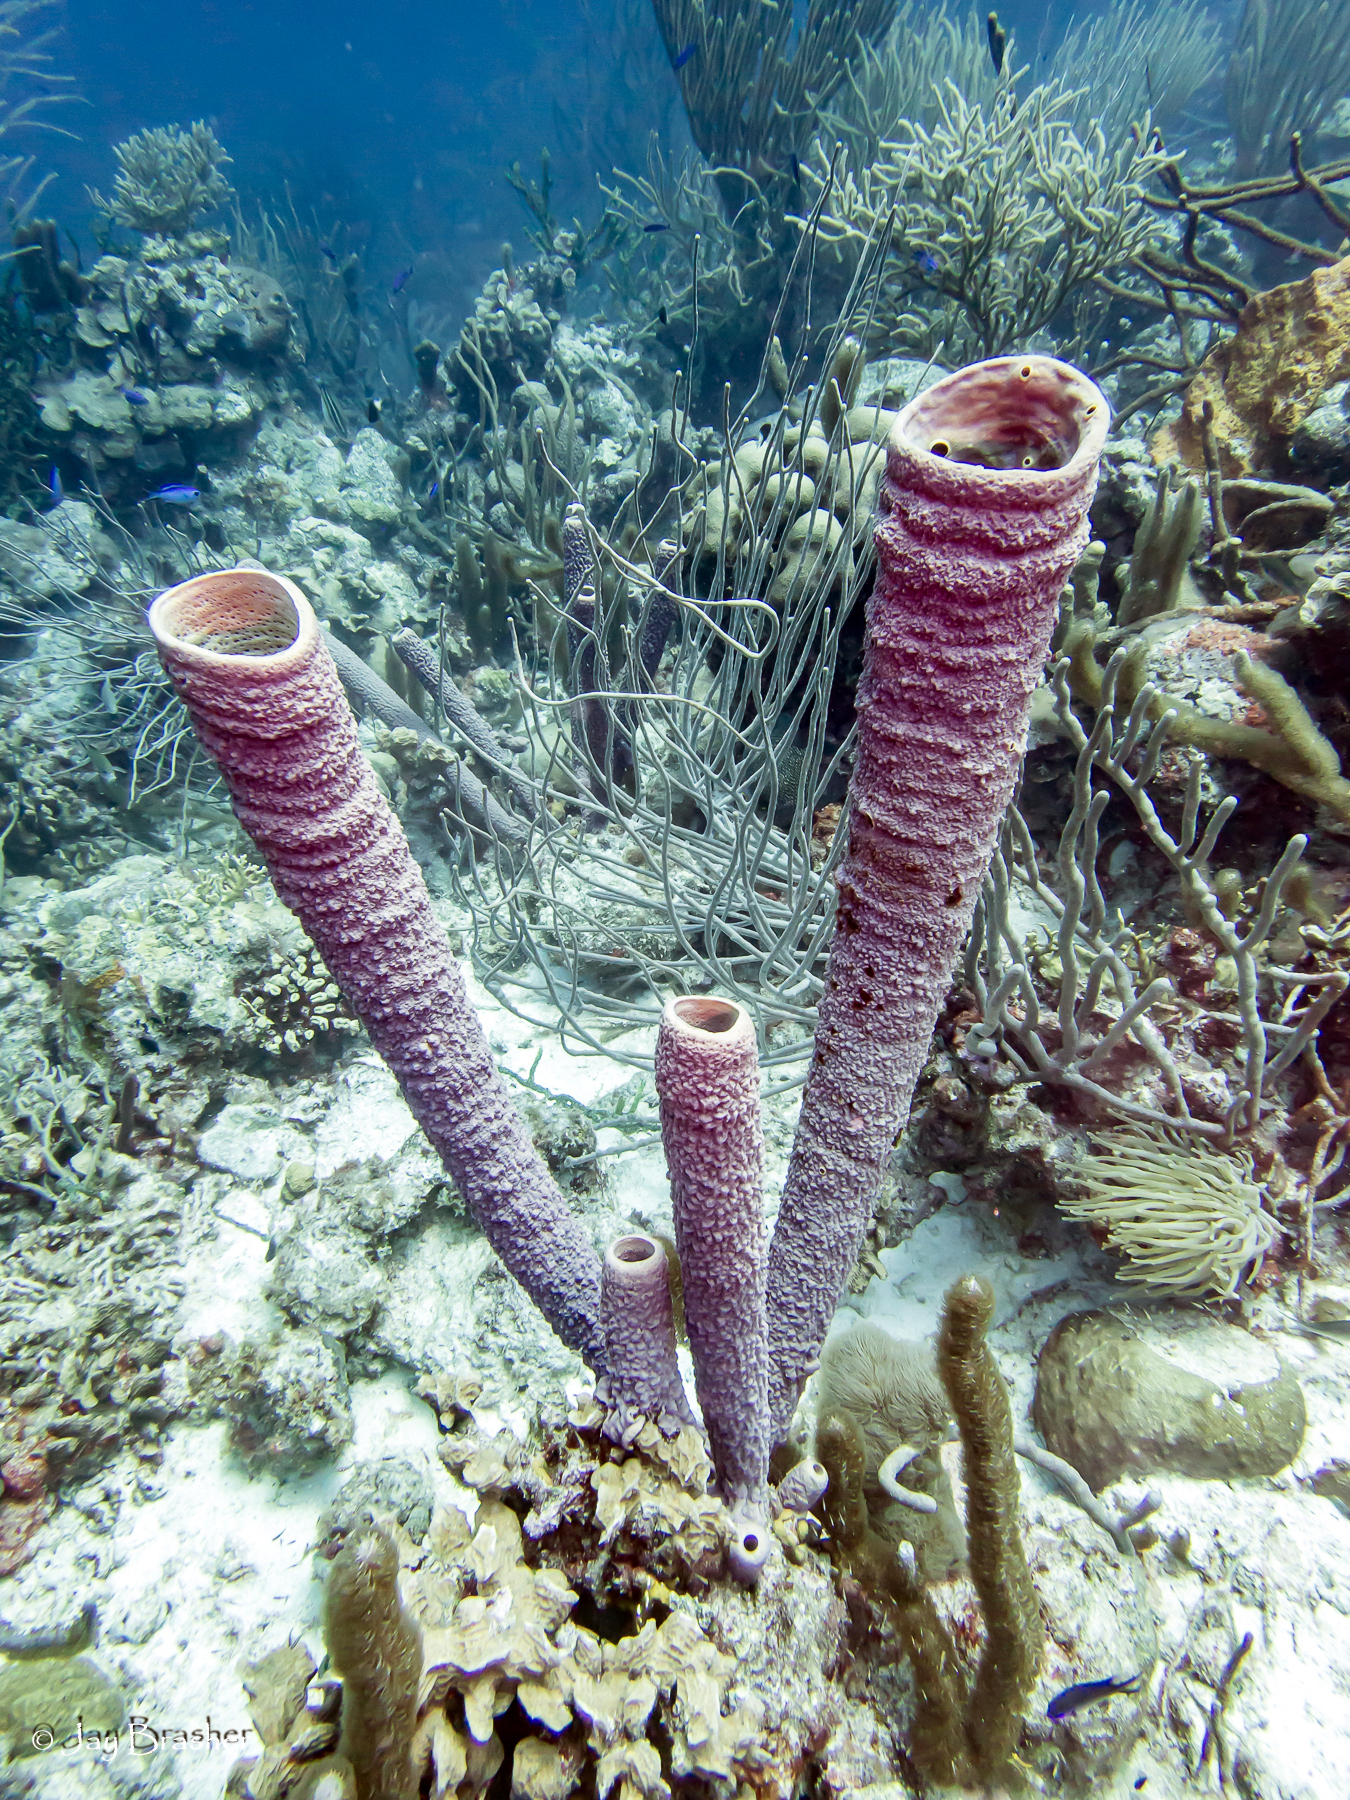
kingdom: Animalia
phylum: Porifera
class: Demospongiae
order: Verongiida
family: Aplysinidae
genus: Aplysina
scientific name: Aplysina archeri
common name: Stove-pipe sponge
